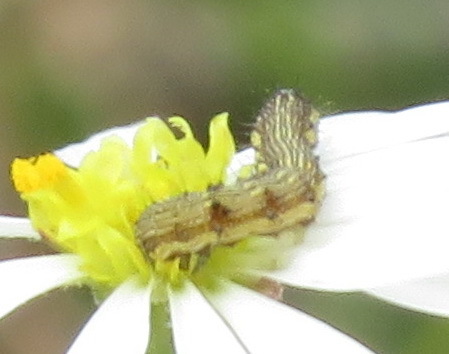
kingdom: Animalia
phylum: Arthropoda
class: Insecta
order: Lepidoptera
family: Noctuidae
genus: Helicoverpa
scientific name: Helicoverpa armigera
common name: Cotton bollworm
